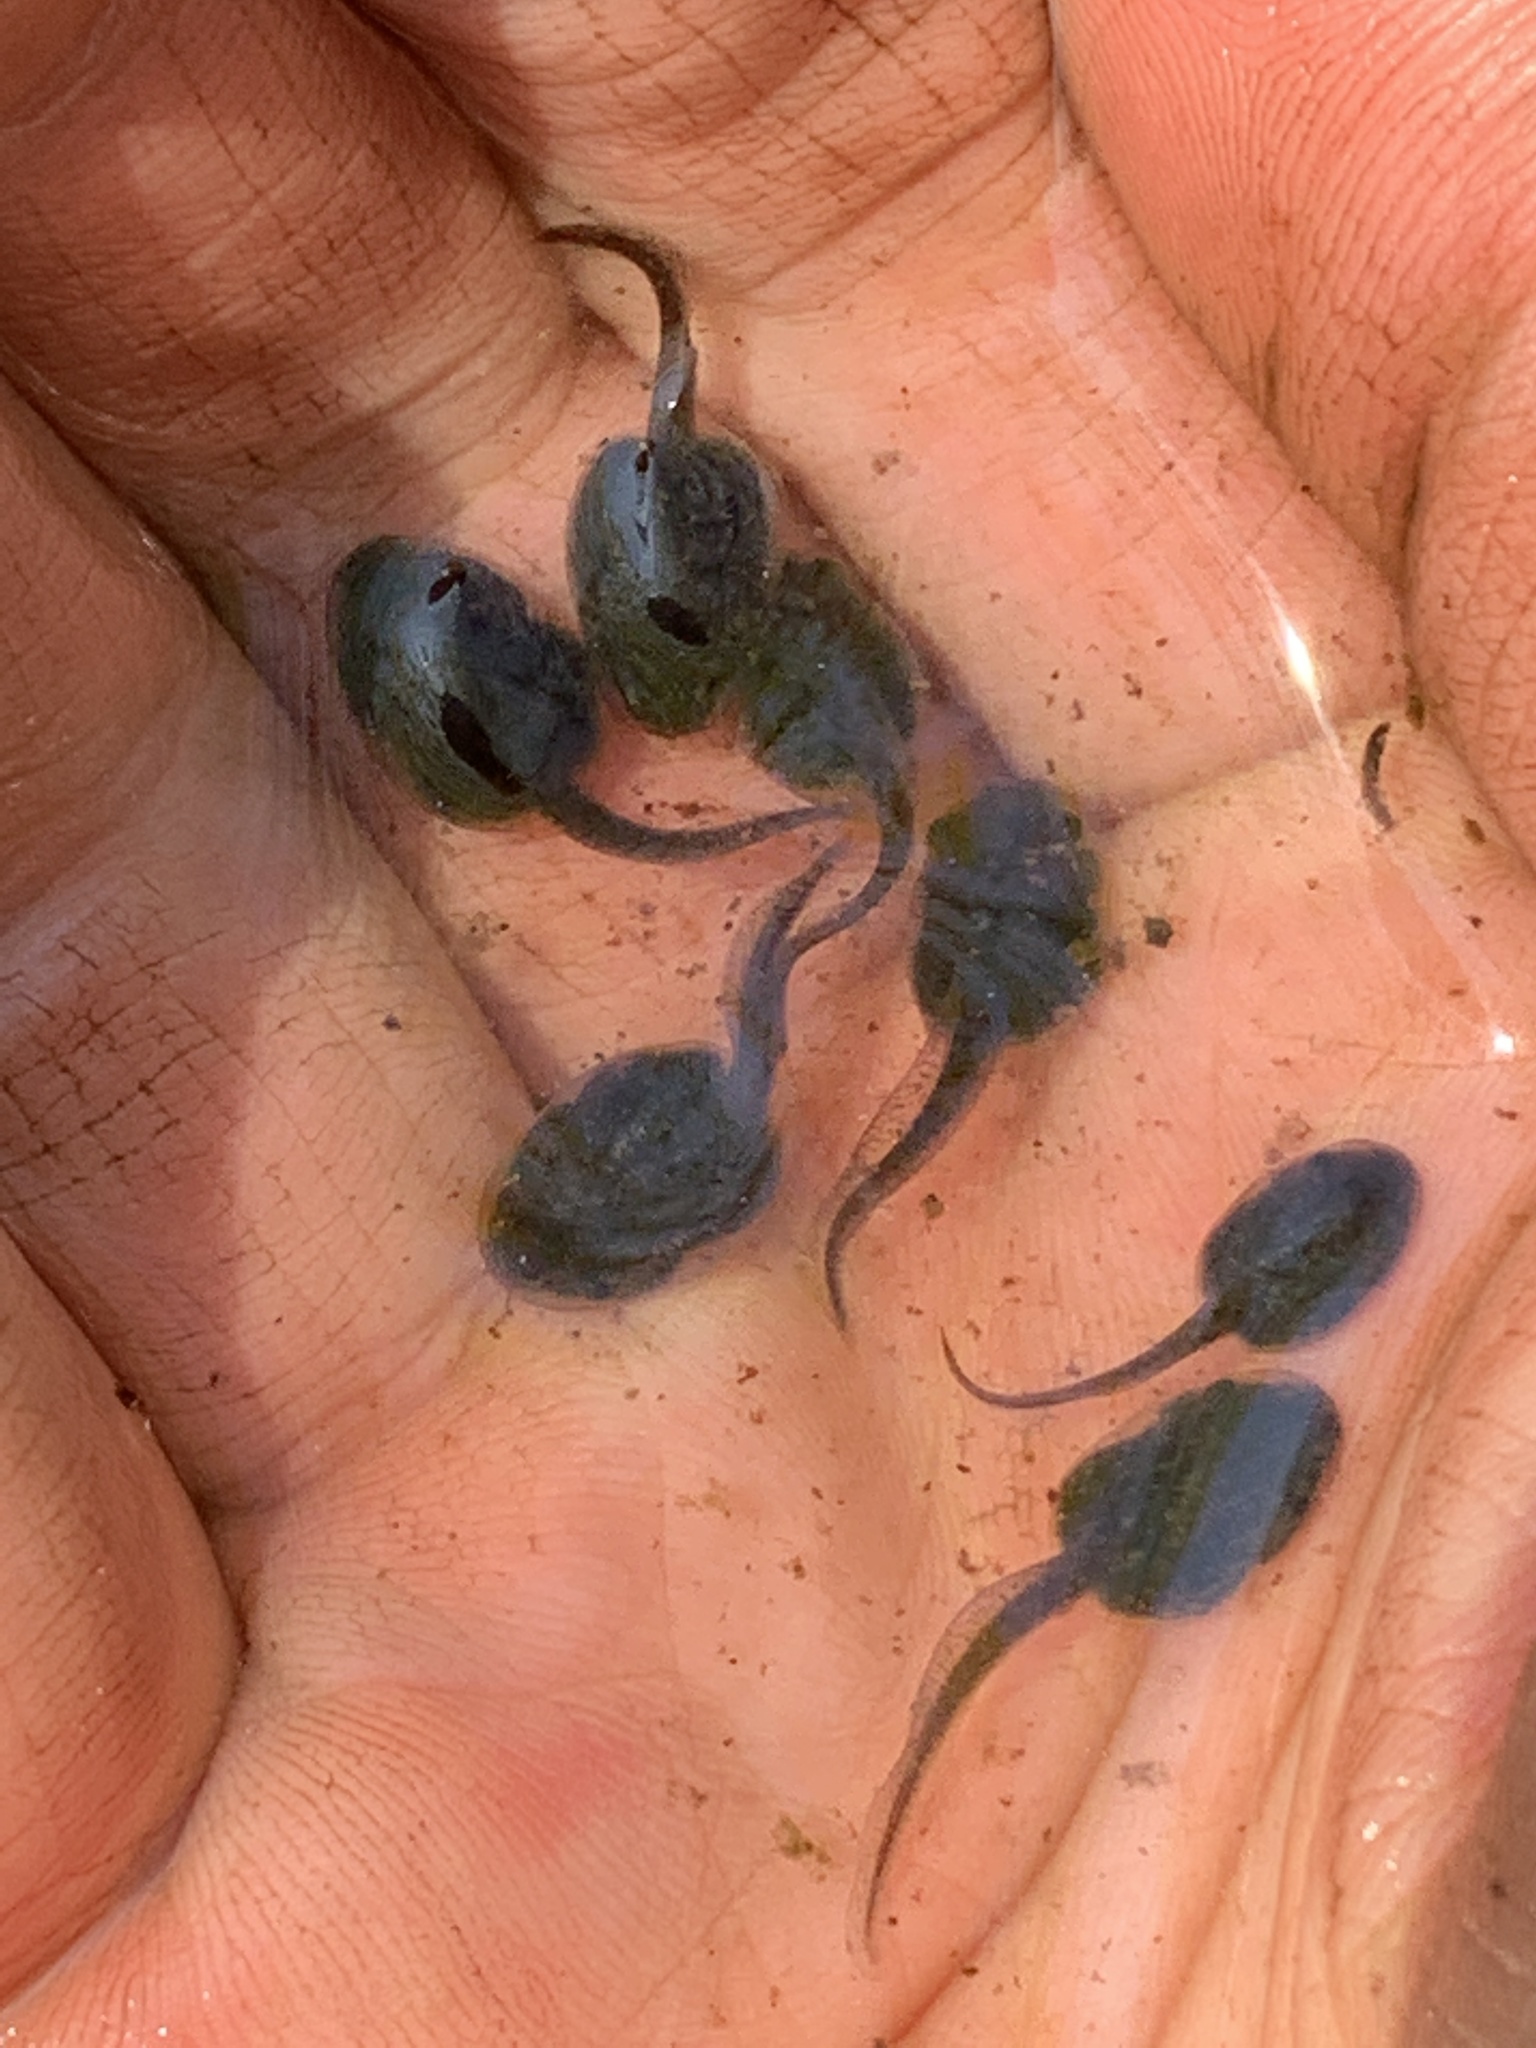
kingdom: Animalia
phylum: Chordata
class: Amphibia
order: Anura
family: Ranidae
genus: Lithobates
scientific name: Lithobates sylvaticus
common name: Wood frog
